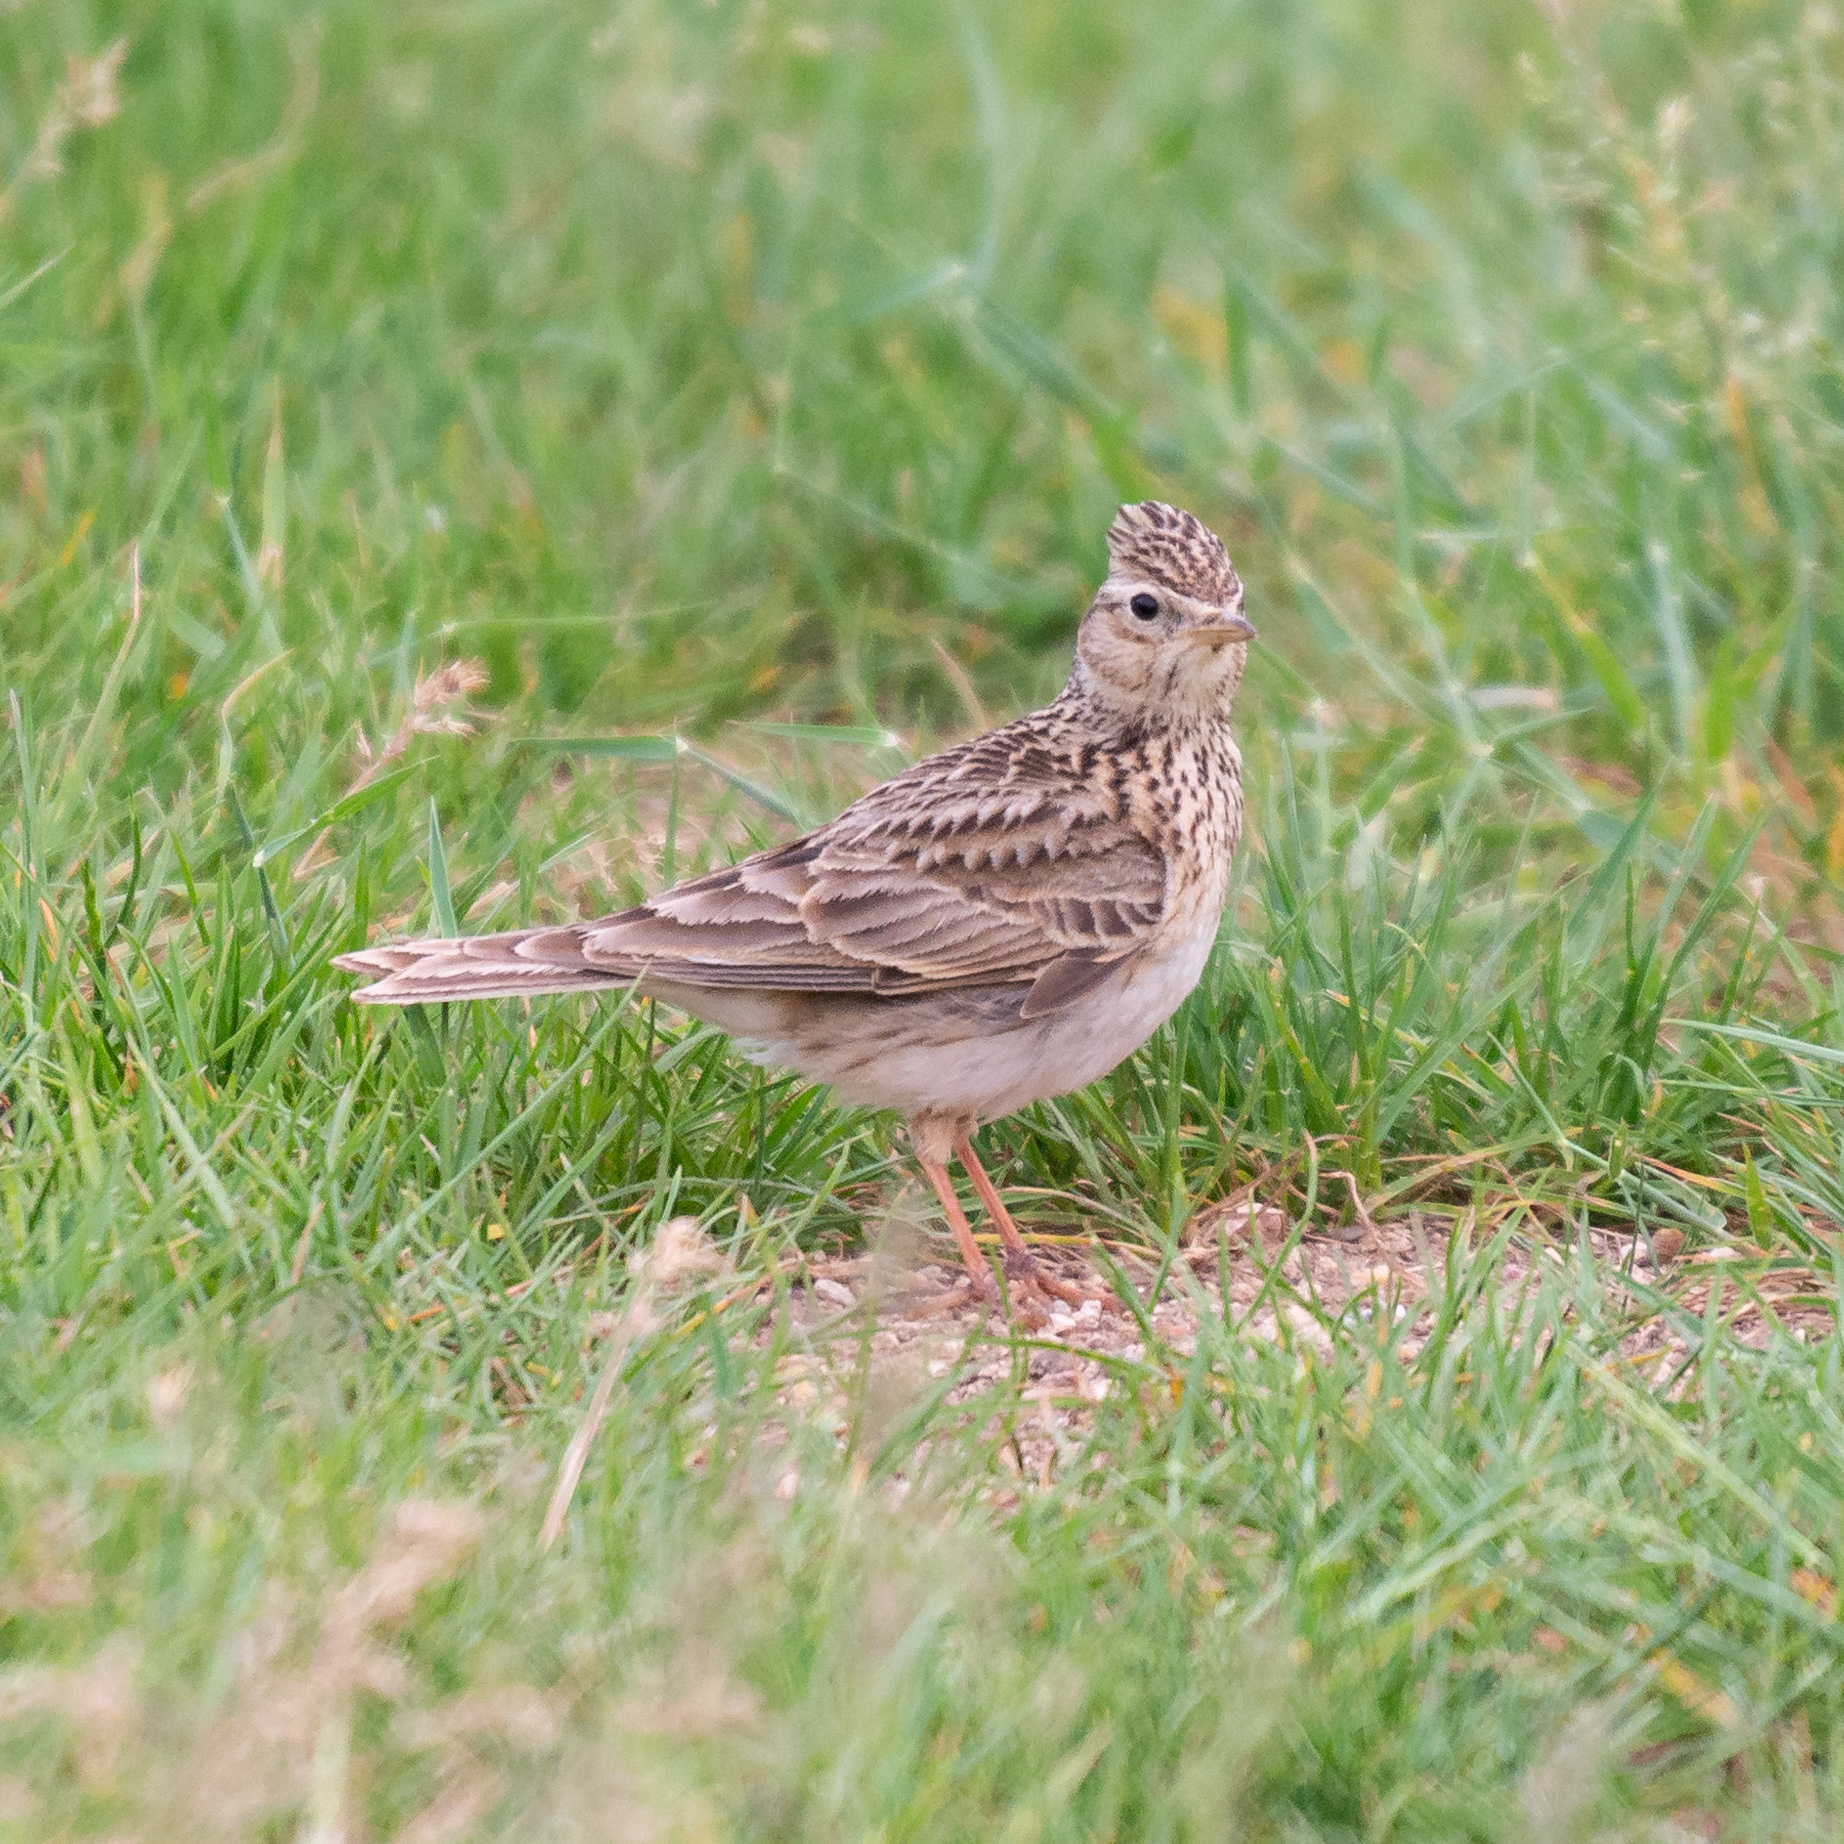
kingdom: Animalia
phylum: Chordata
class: Aves
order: Passeriformes
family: Alaudidae
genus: Alauda
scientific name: Alauda arvensis
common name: Eurasian skylark
